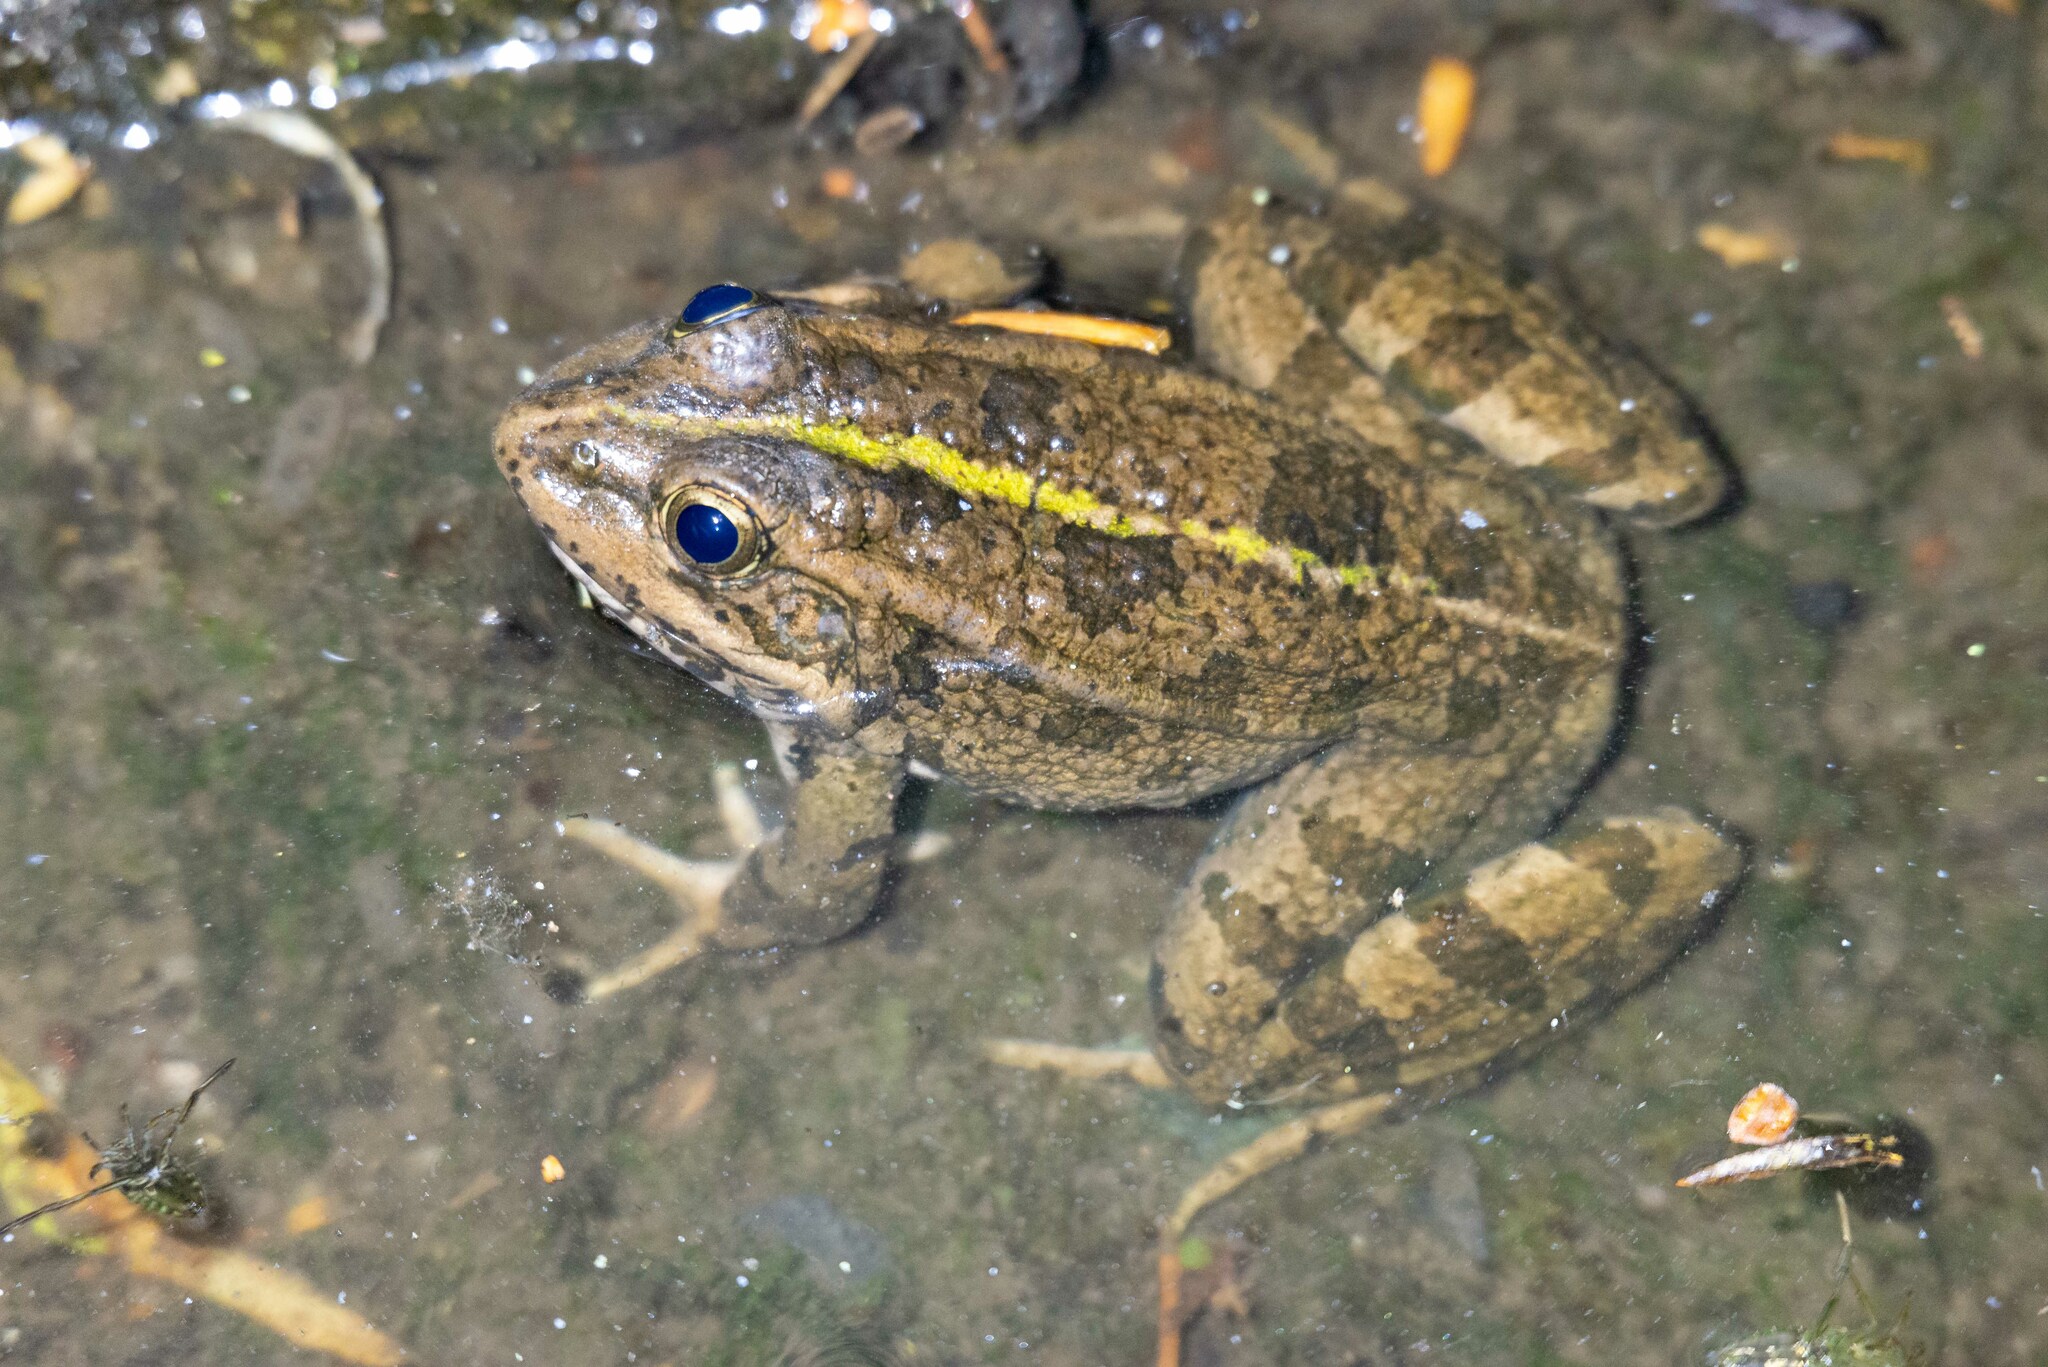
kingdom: Animalia
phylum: Chordata
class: Amphibia
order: Anura
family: Ranidae
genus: Pelophylax
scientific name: Pelophylax perezi
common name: Perez's frog
